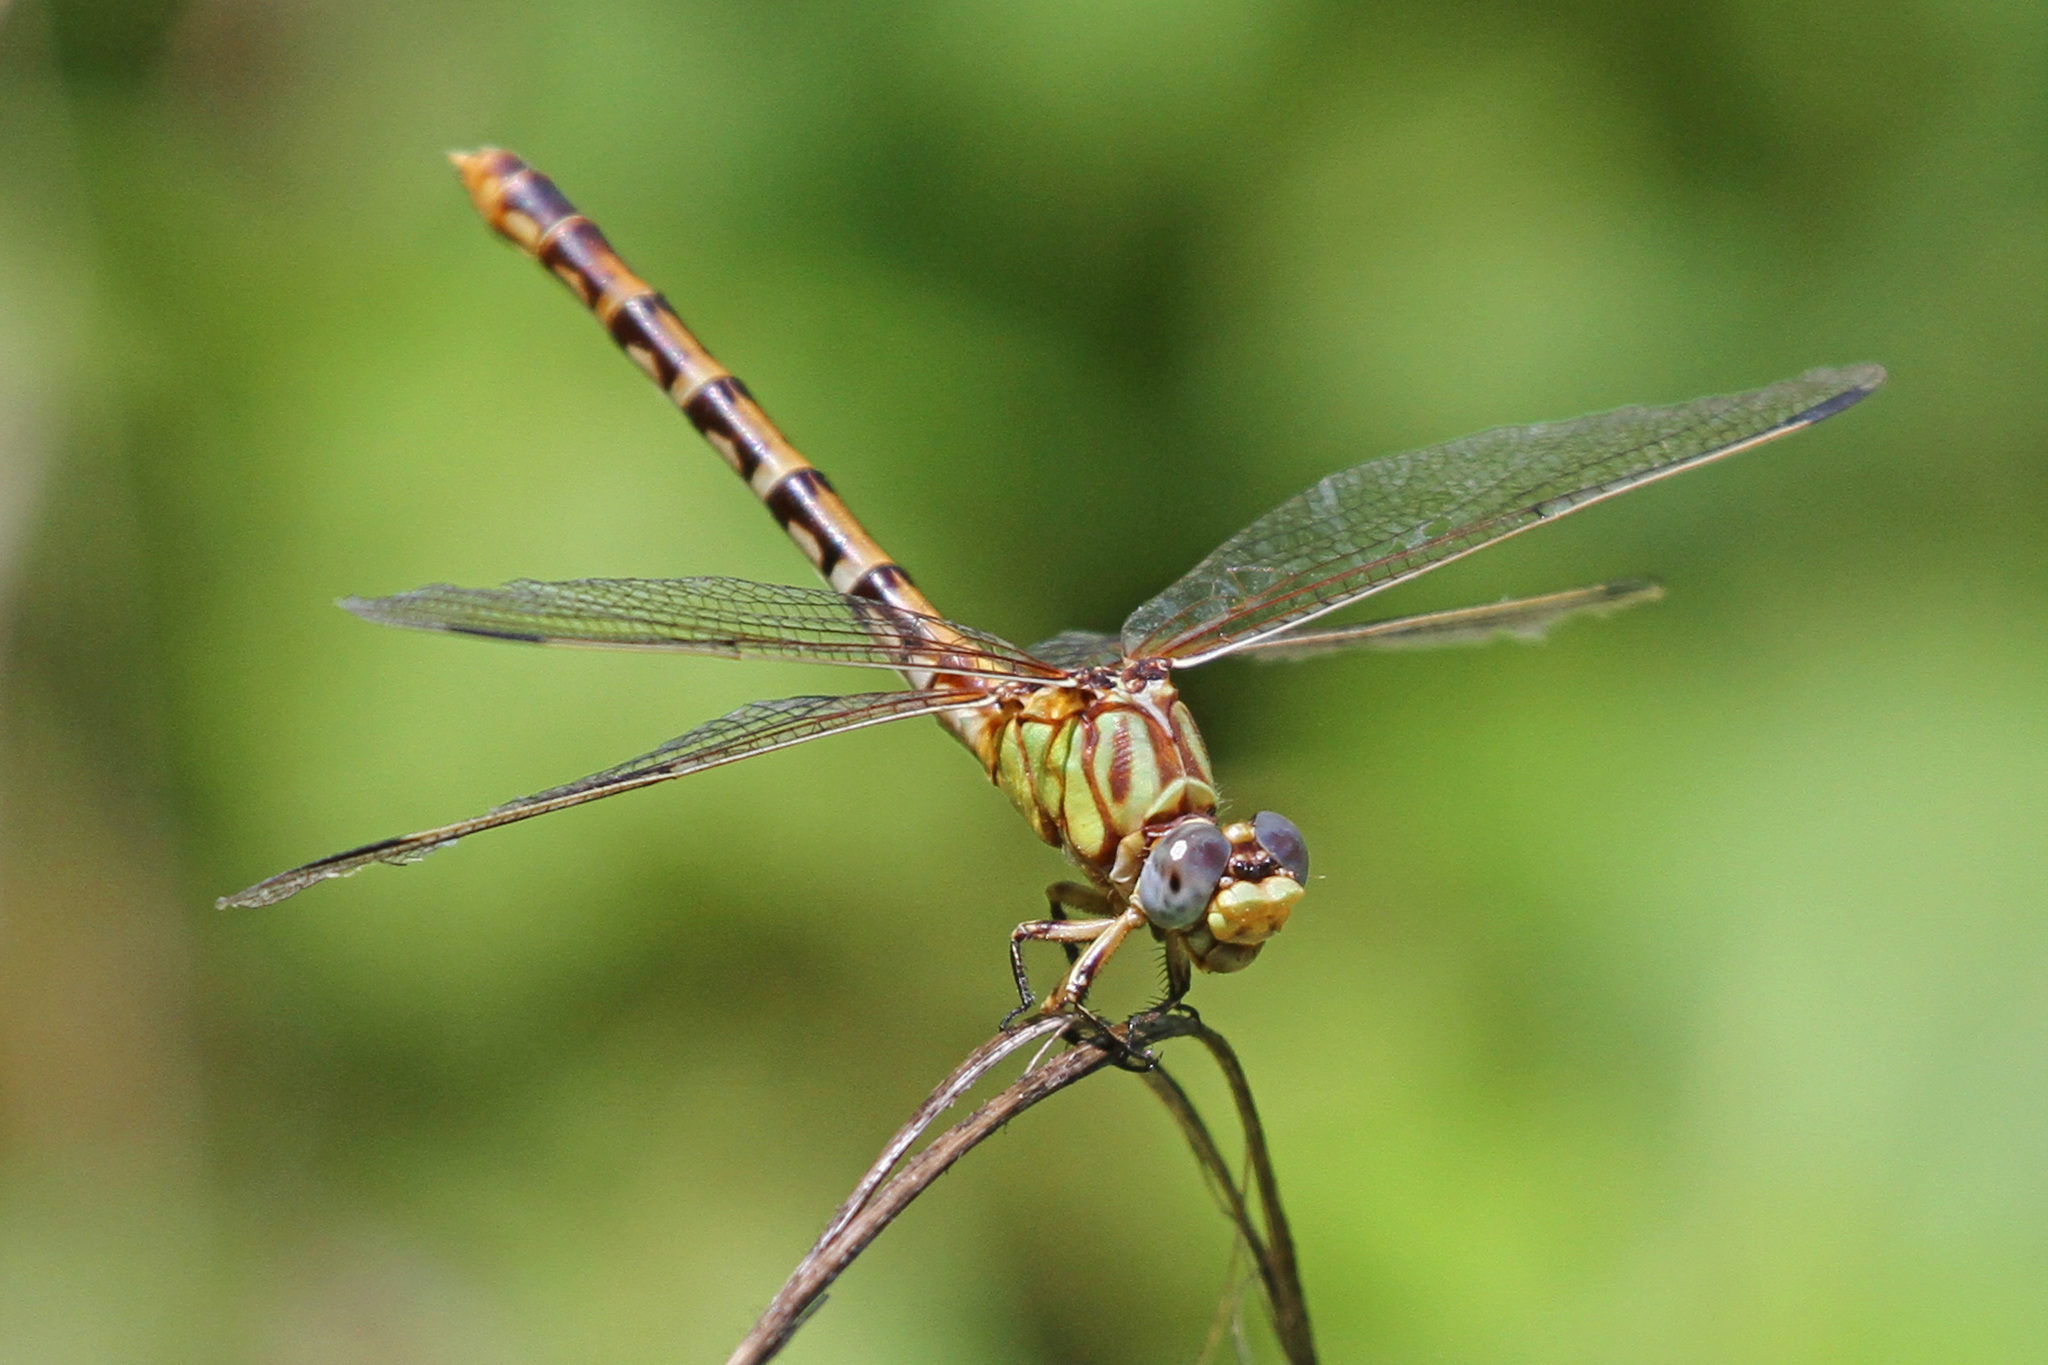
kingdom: Animalia
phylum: Arthropoda
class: Insecta
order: Odonata
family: Gomphidae
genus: Erpetogomphus
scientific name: Erpetogomphus designatus
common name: Eastern ringtail
